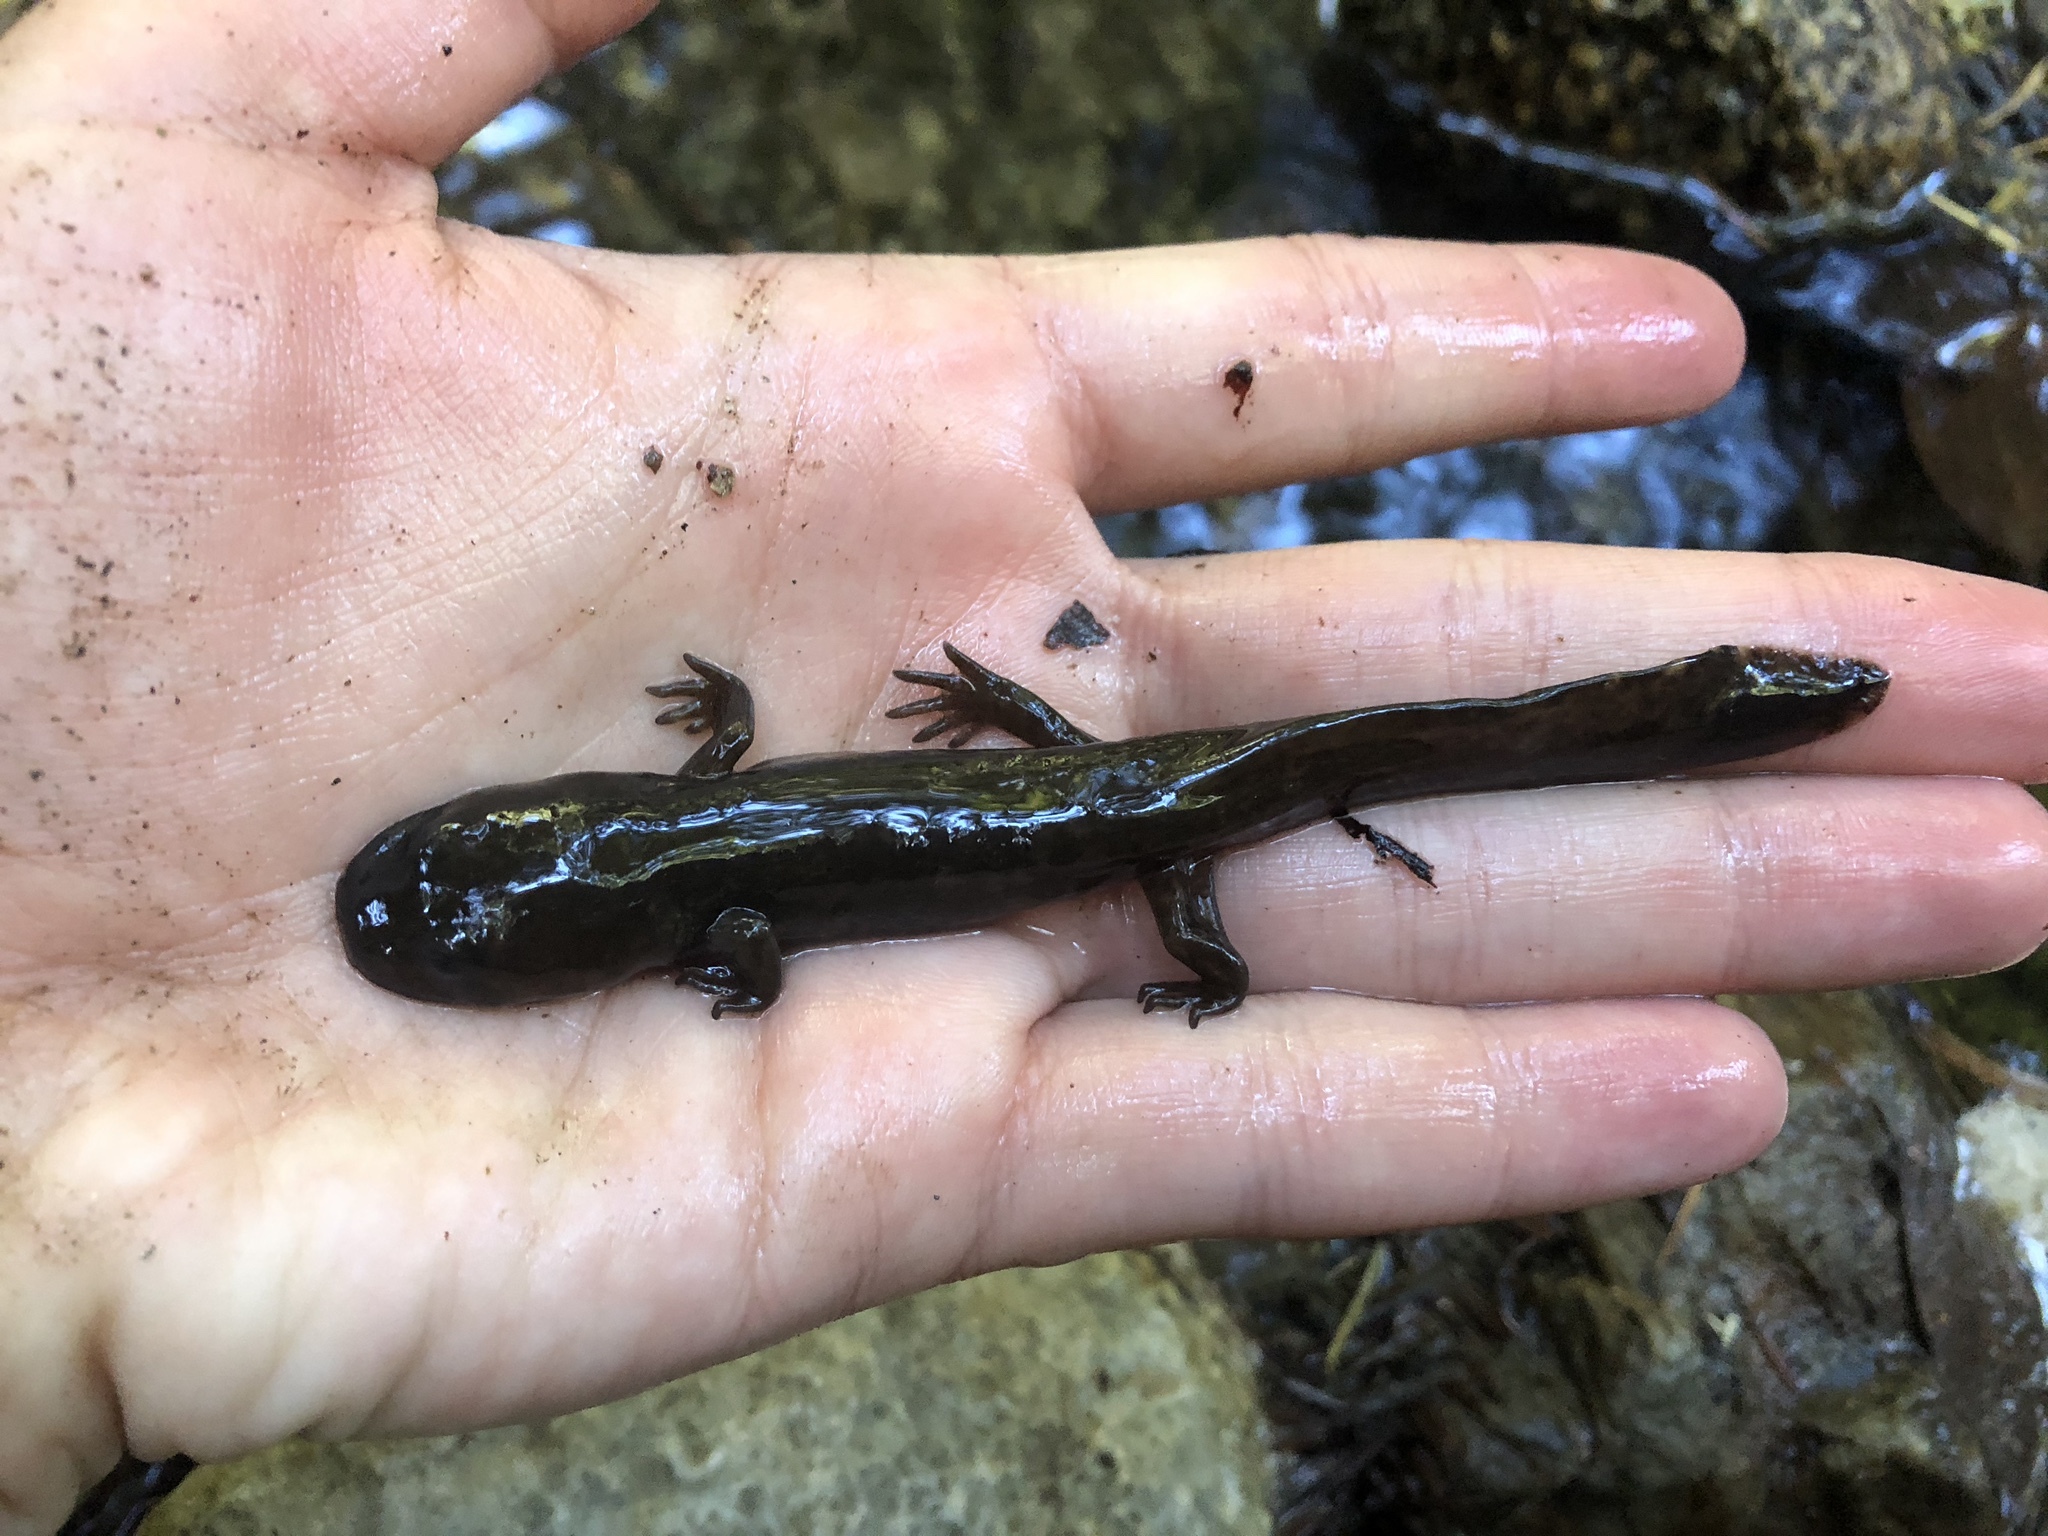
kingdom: Animalia
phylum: Chordata
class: Amphibia
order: Caudata
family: Ambystomatidae
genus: Dicamptodon
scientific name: Dicamptodon ensatus
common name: California giant salamander
